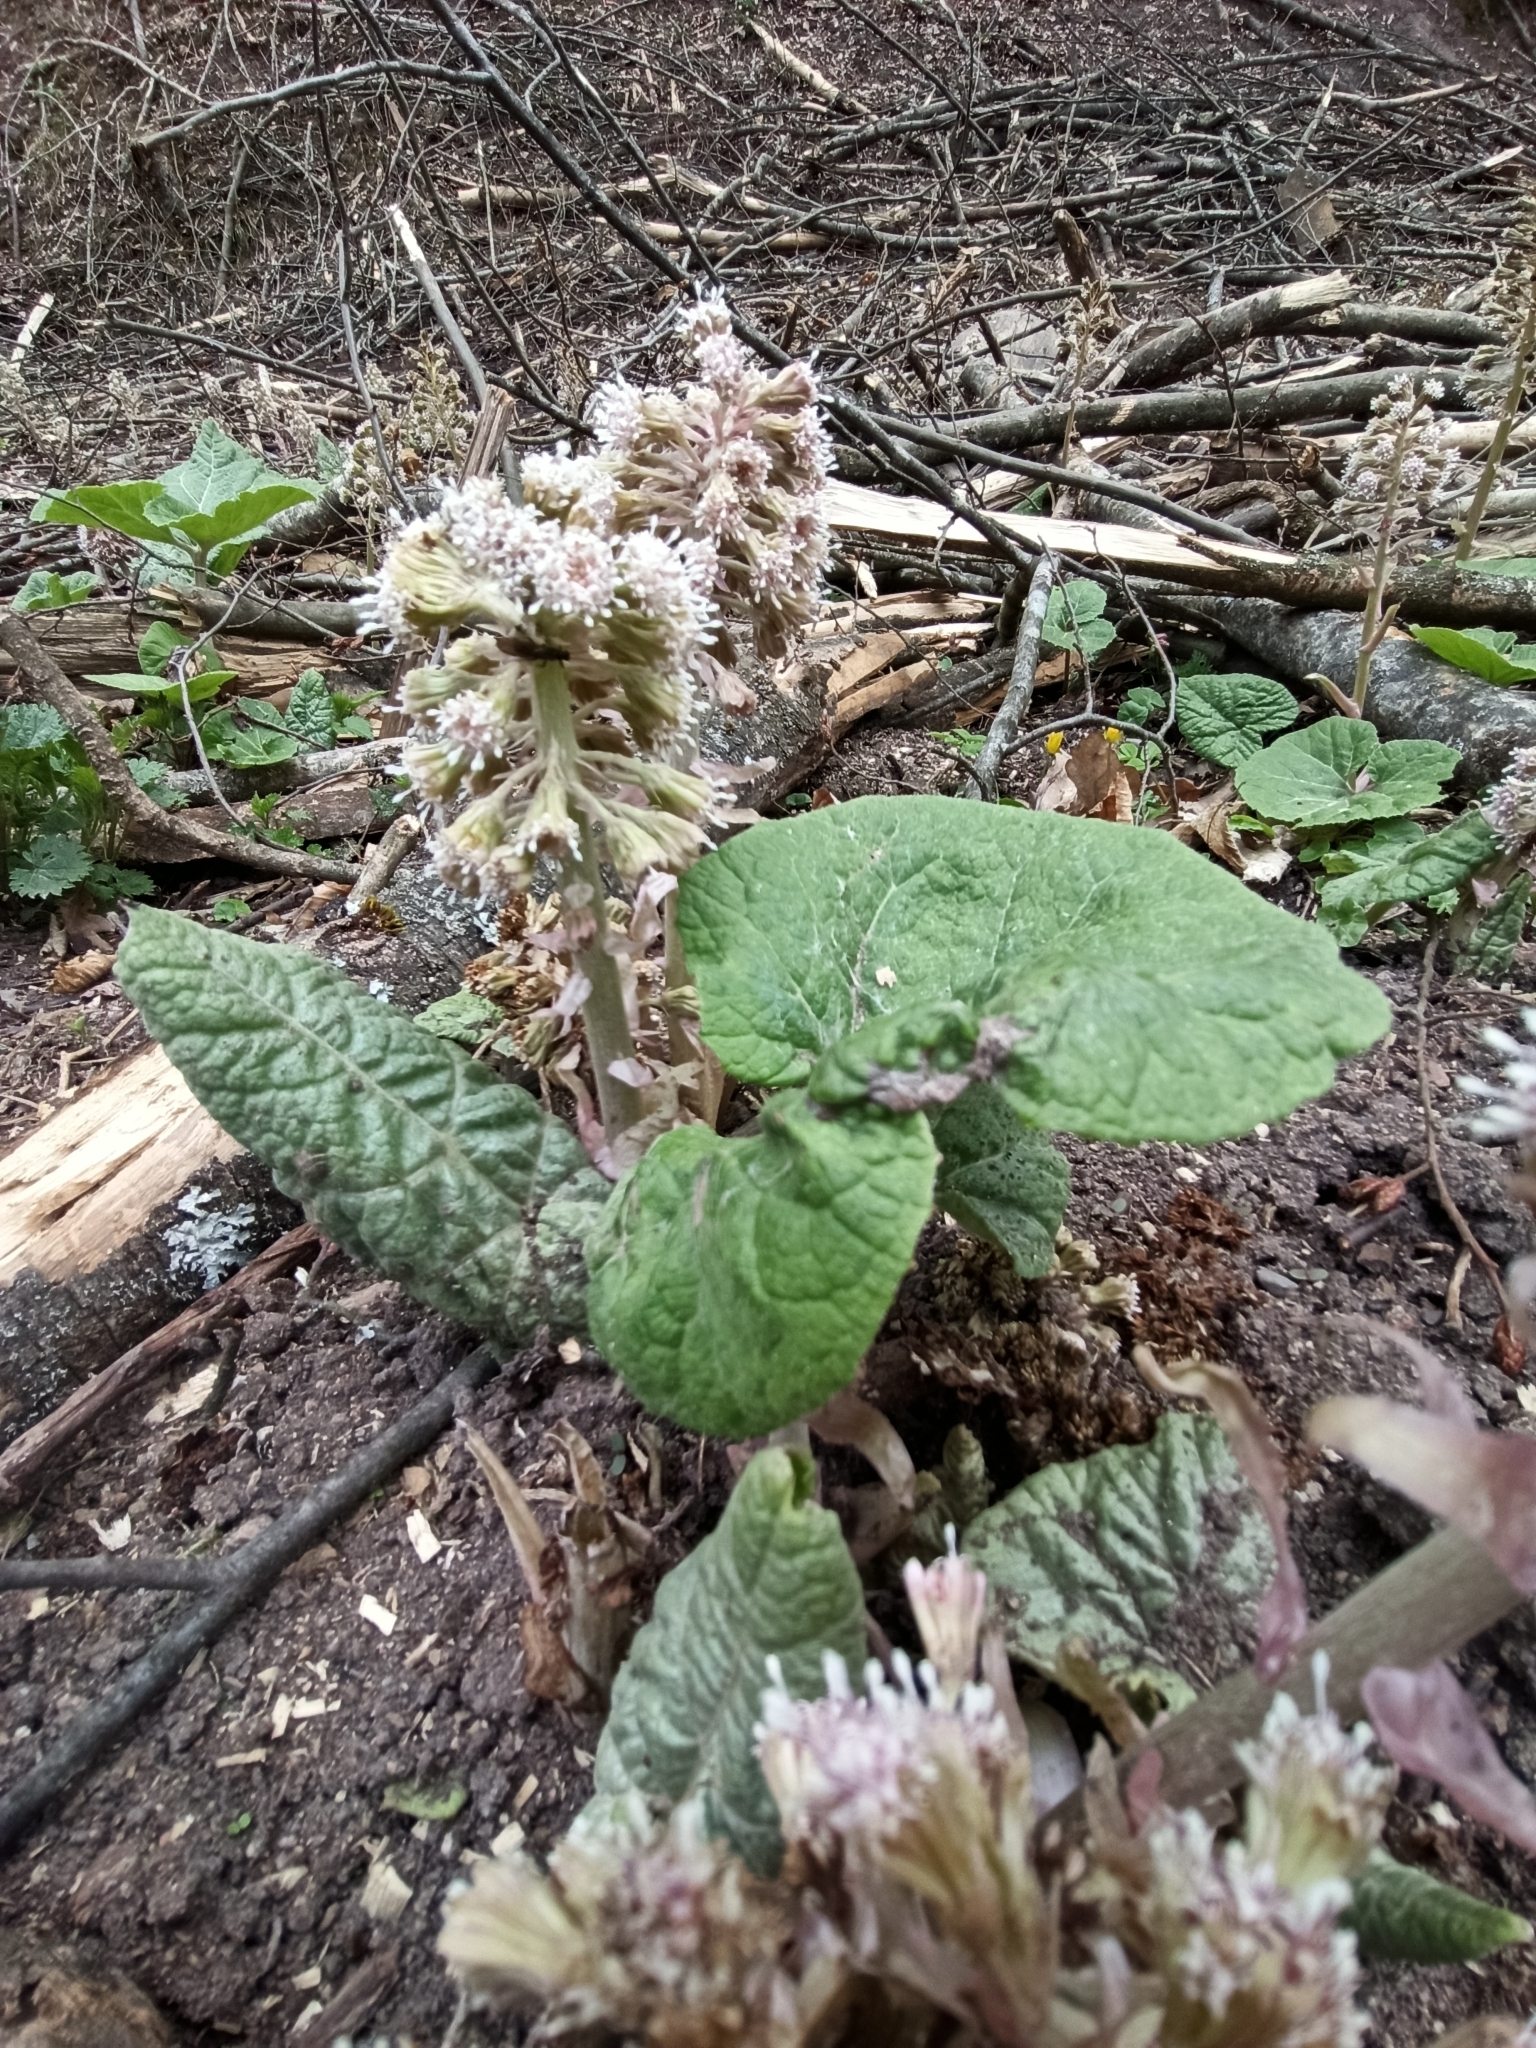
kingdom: Plantae
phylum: Tracheophyta
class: Magnoliopsida
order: Asterales
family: Asteraceae
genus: Petasites
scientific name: Petasites albus
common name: White butterbur
